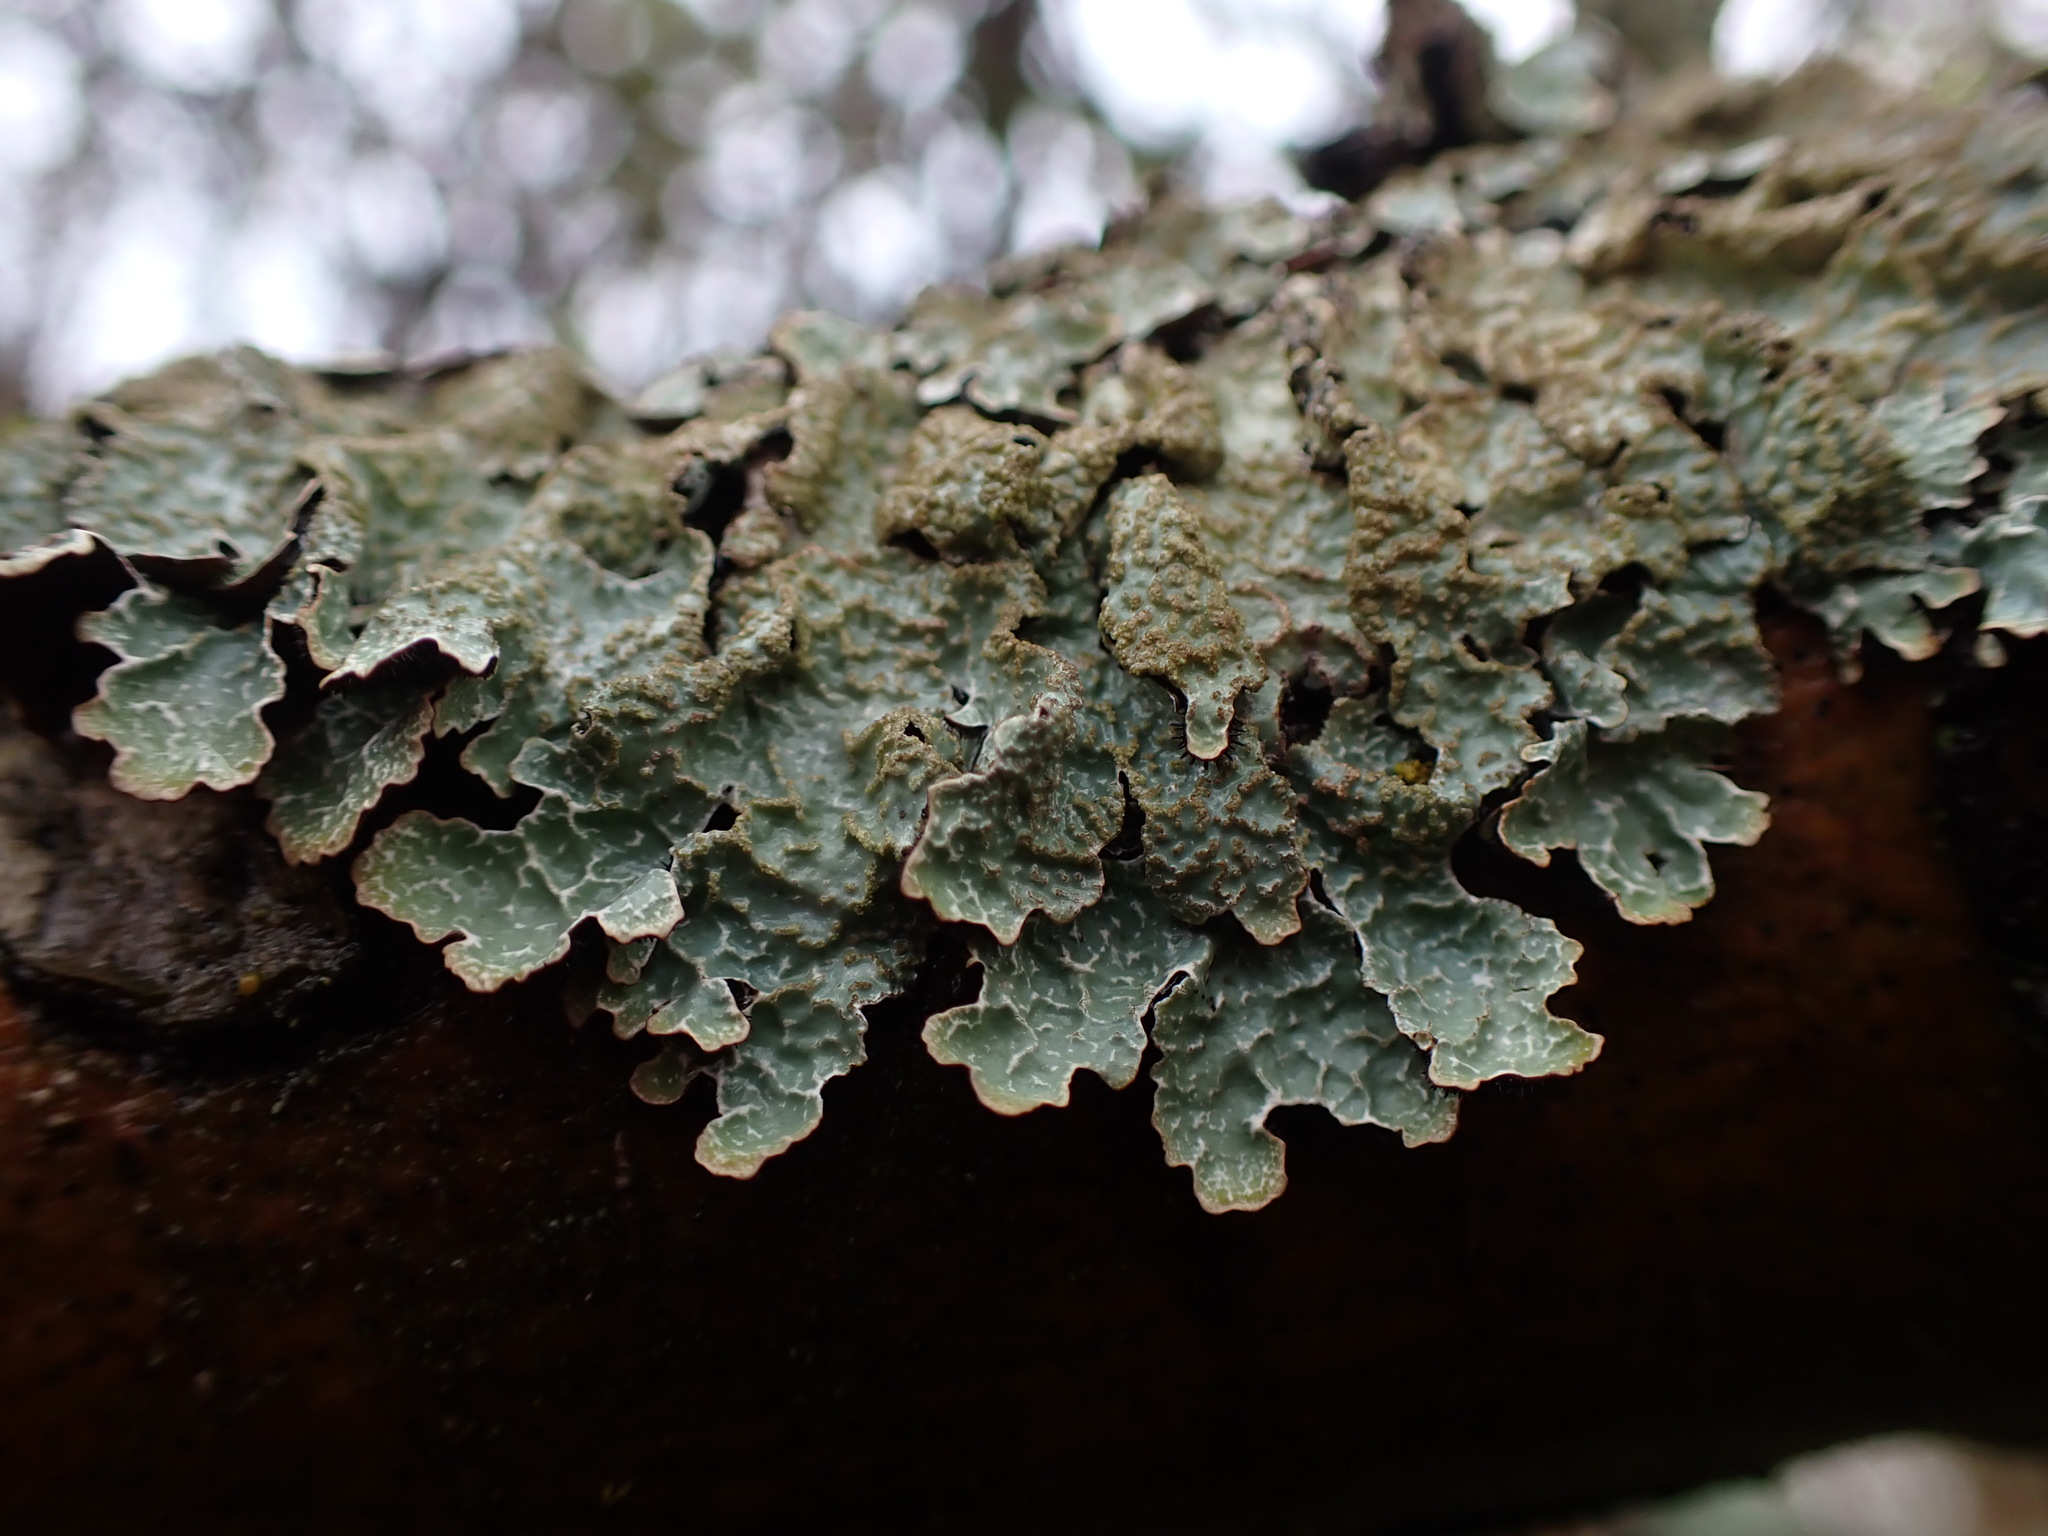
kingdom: Fungi
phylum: Ascomycota
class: Lecanoromycetes
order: Lecanorales
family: Parmeliaceae
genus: Parmelia
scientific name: Parmelia sulcata
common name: Netted shield lichen
